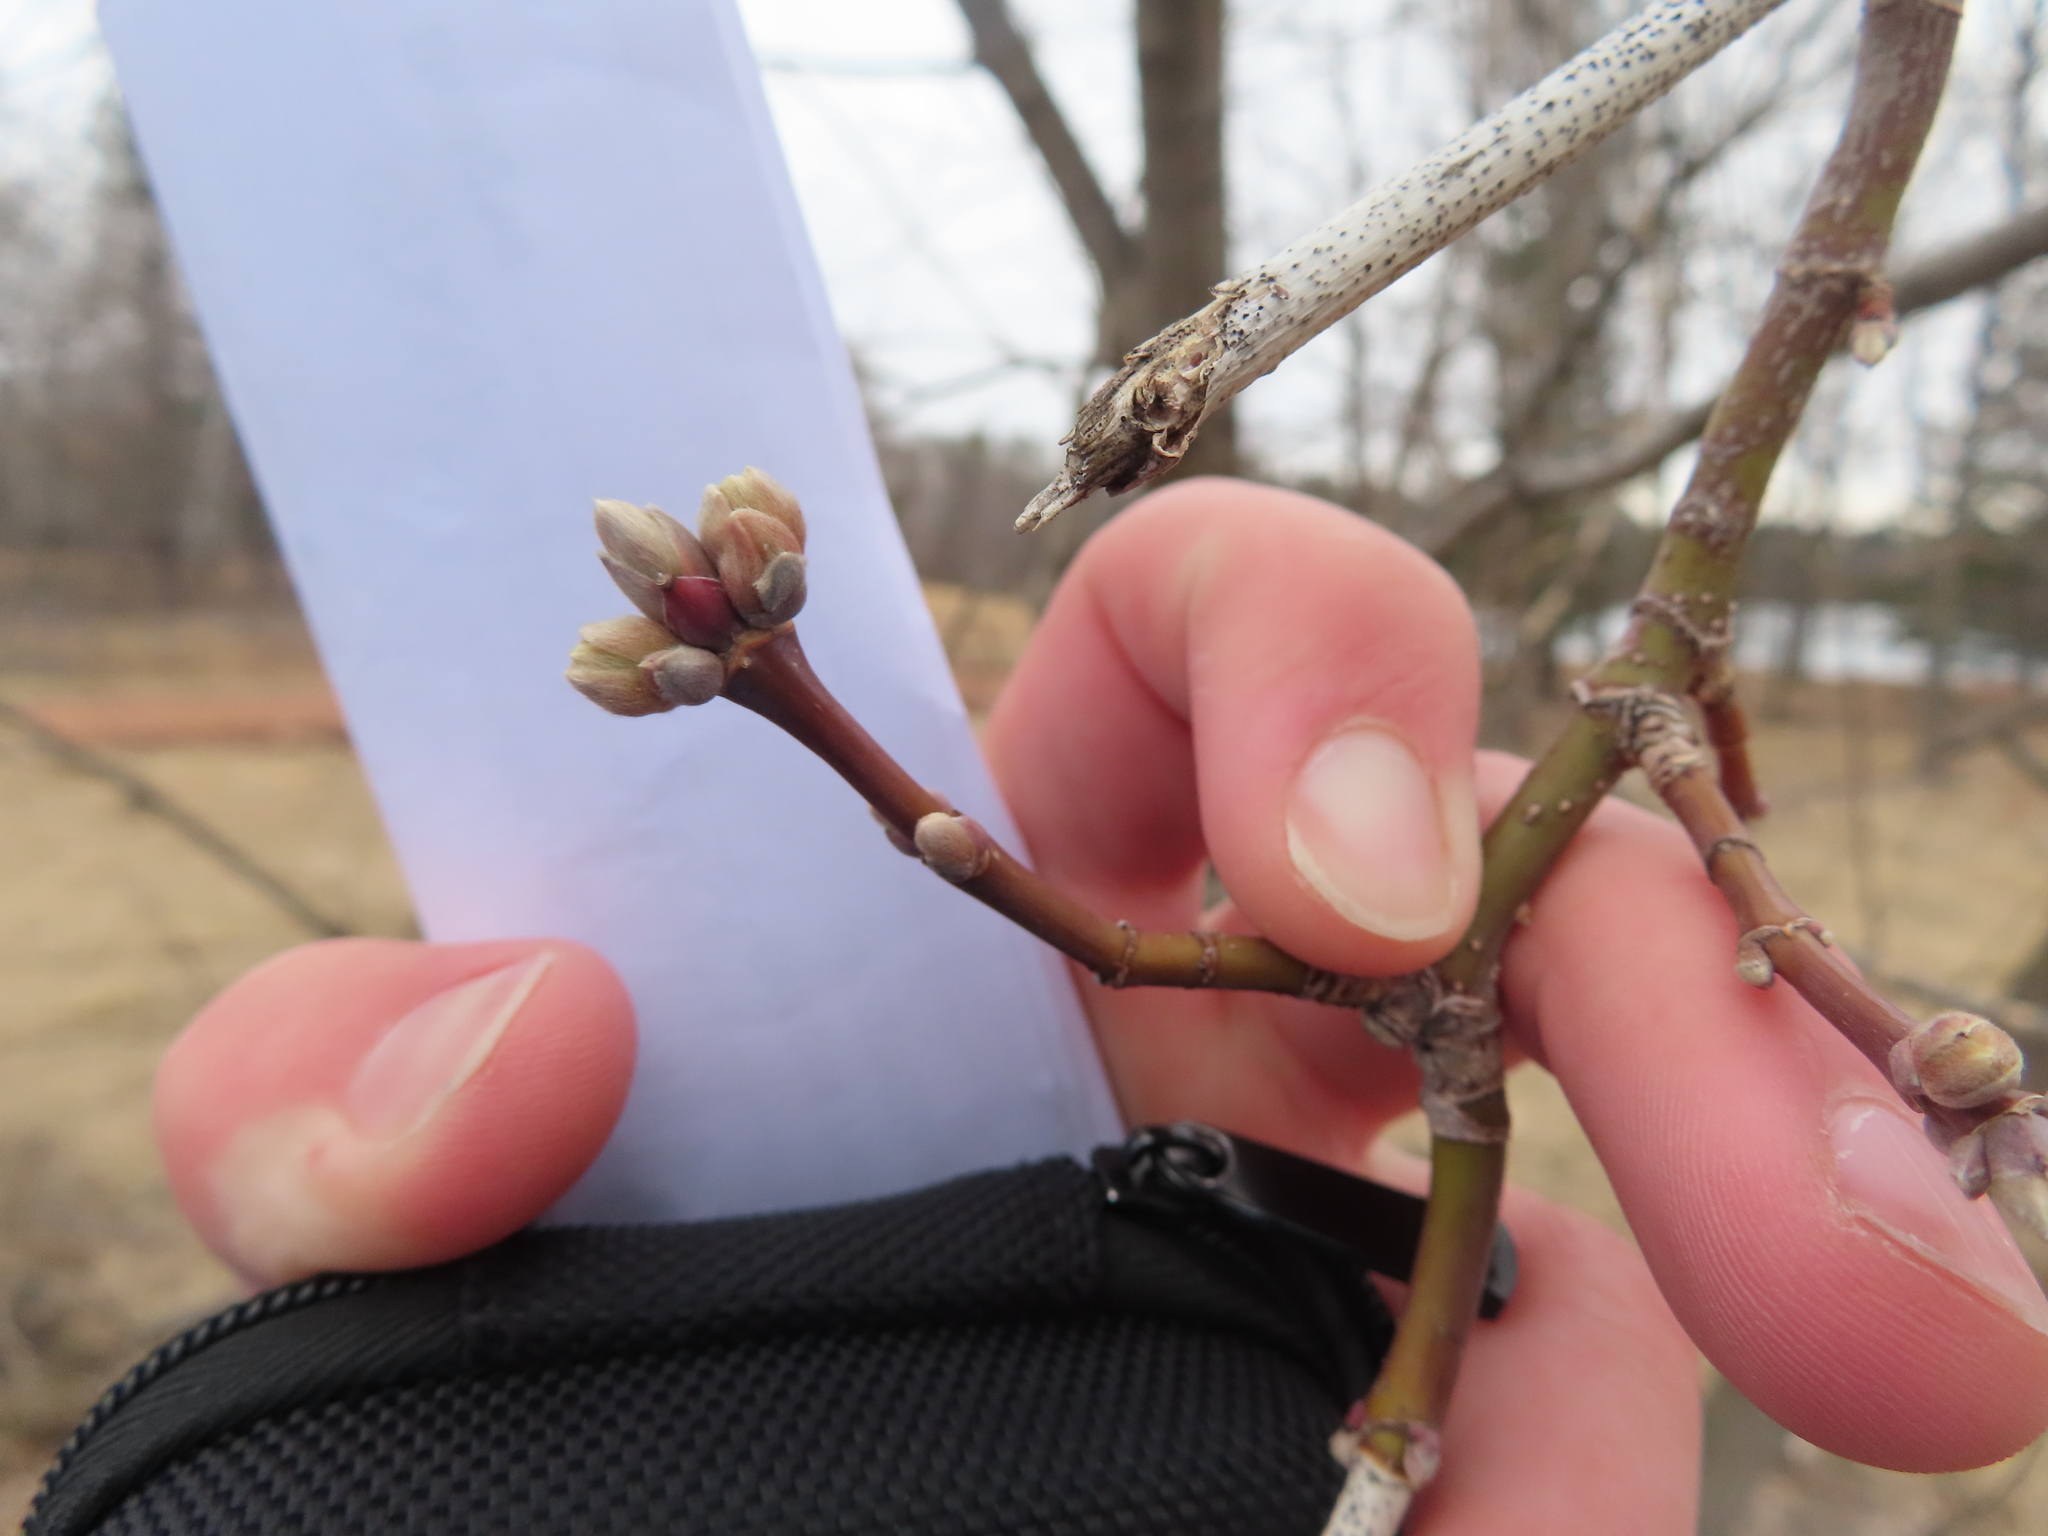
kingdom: Plantae
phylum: Tracheophyta
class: Magnoliopsida
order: Sapindales
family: Sapindaceae
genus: Acer
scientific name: Acer negundo
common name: Ashleaf maple
